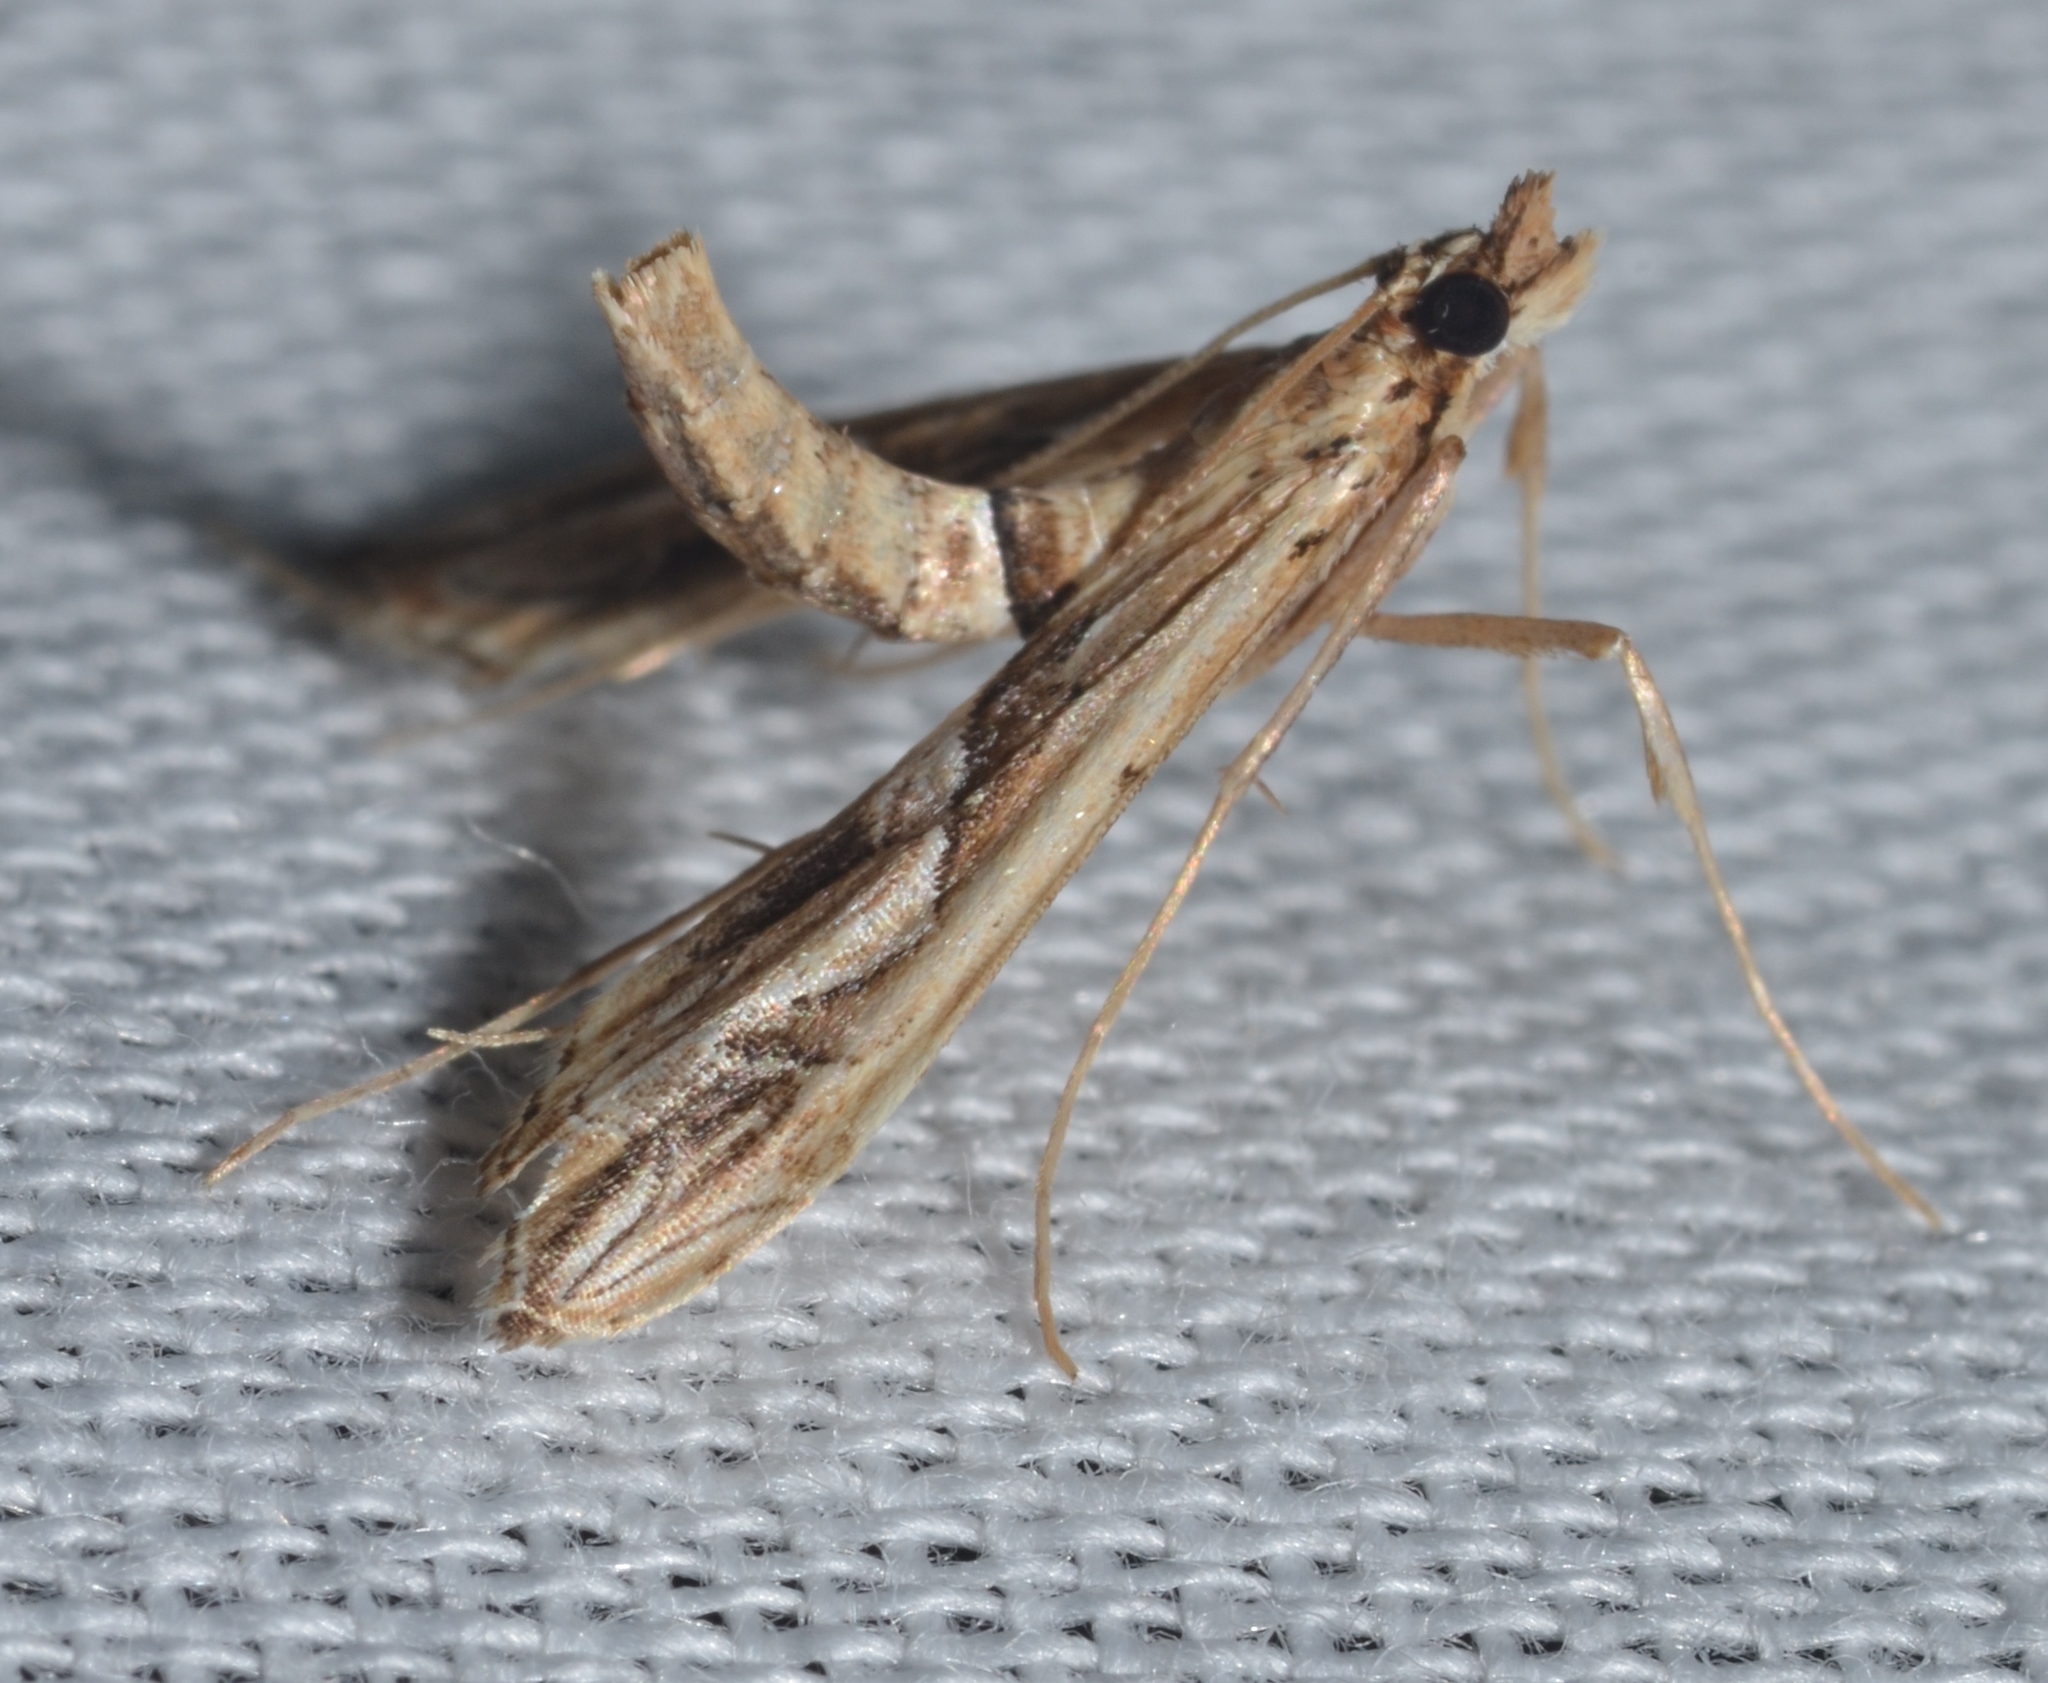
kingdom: Animalia
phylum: Arthropoda
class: Insecta
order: Lepidoptera
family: Crambidae
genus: Lineodes
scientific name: Lineodes fontella
